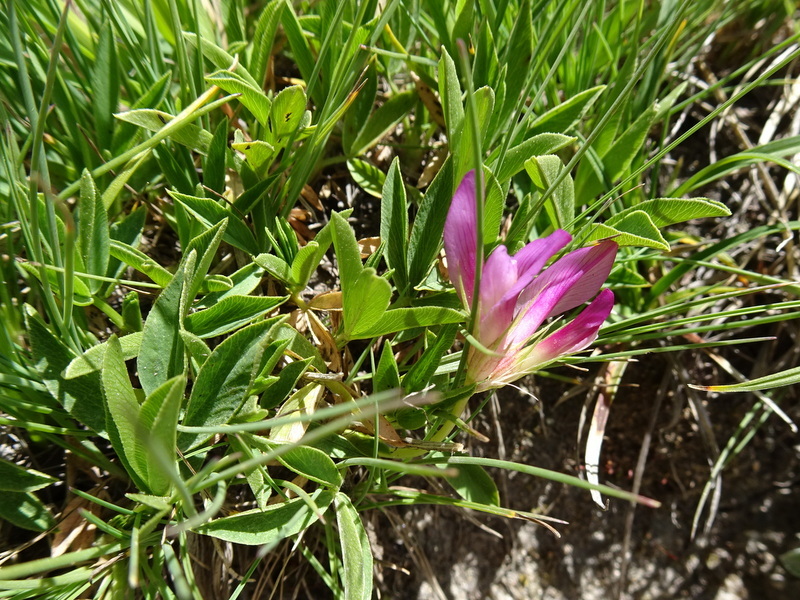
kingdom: Plantae
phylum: Tracheophyta
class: Magnoliopsida
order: Fabales
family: Fabaceae
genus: Trifolium
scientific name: Trifolium alpinum
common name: Alpine clover
